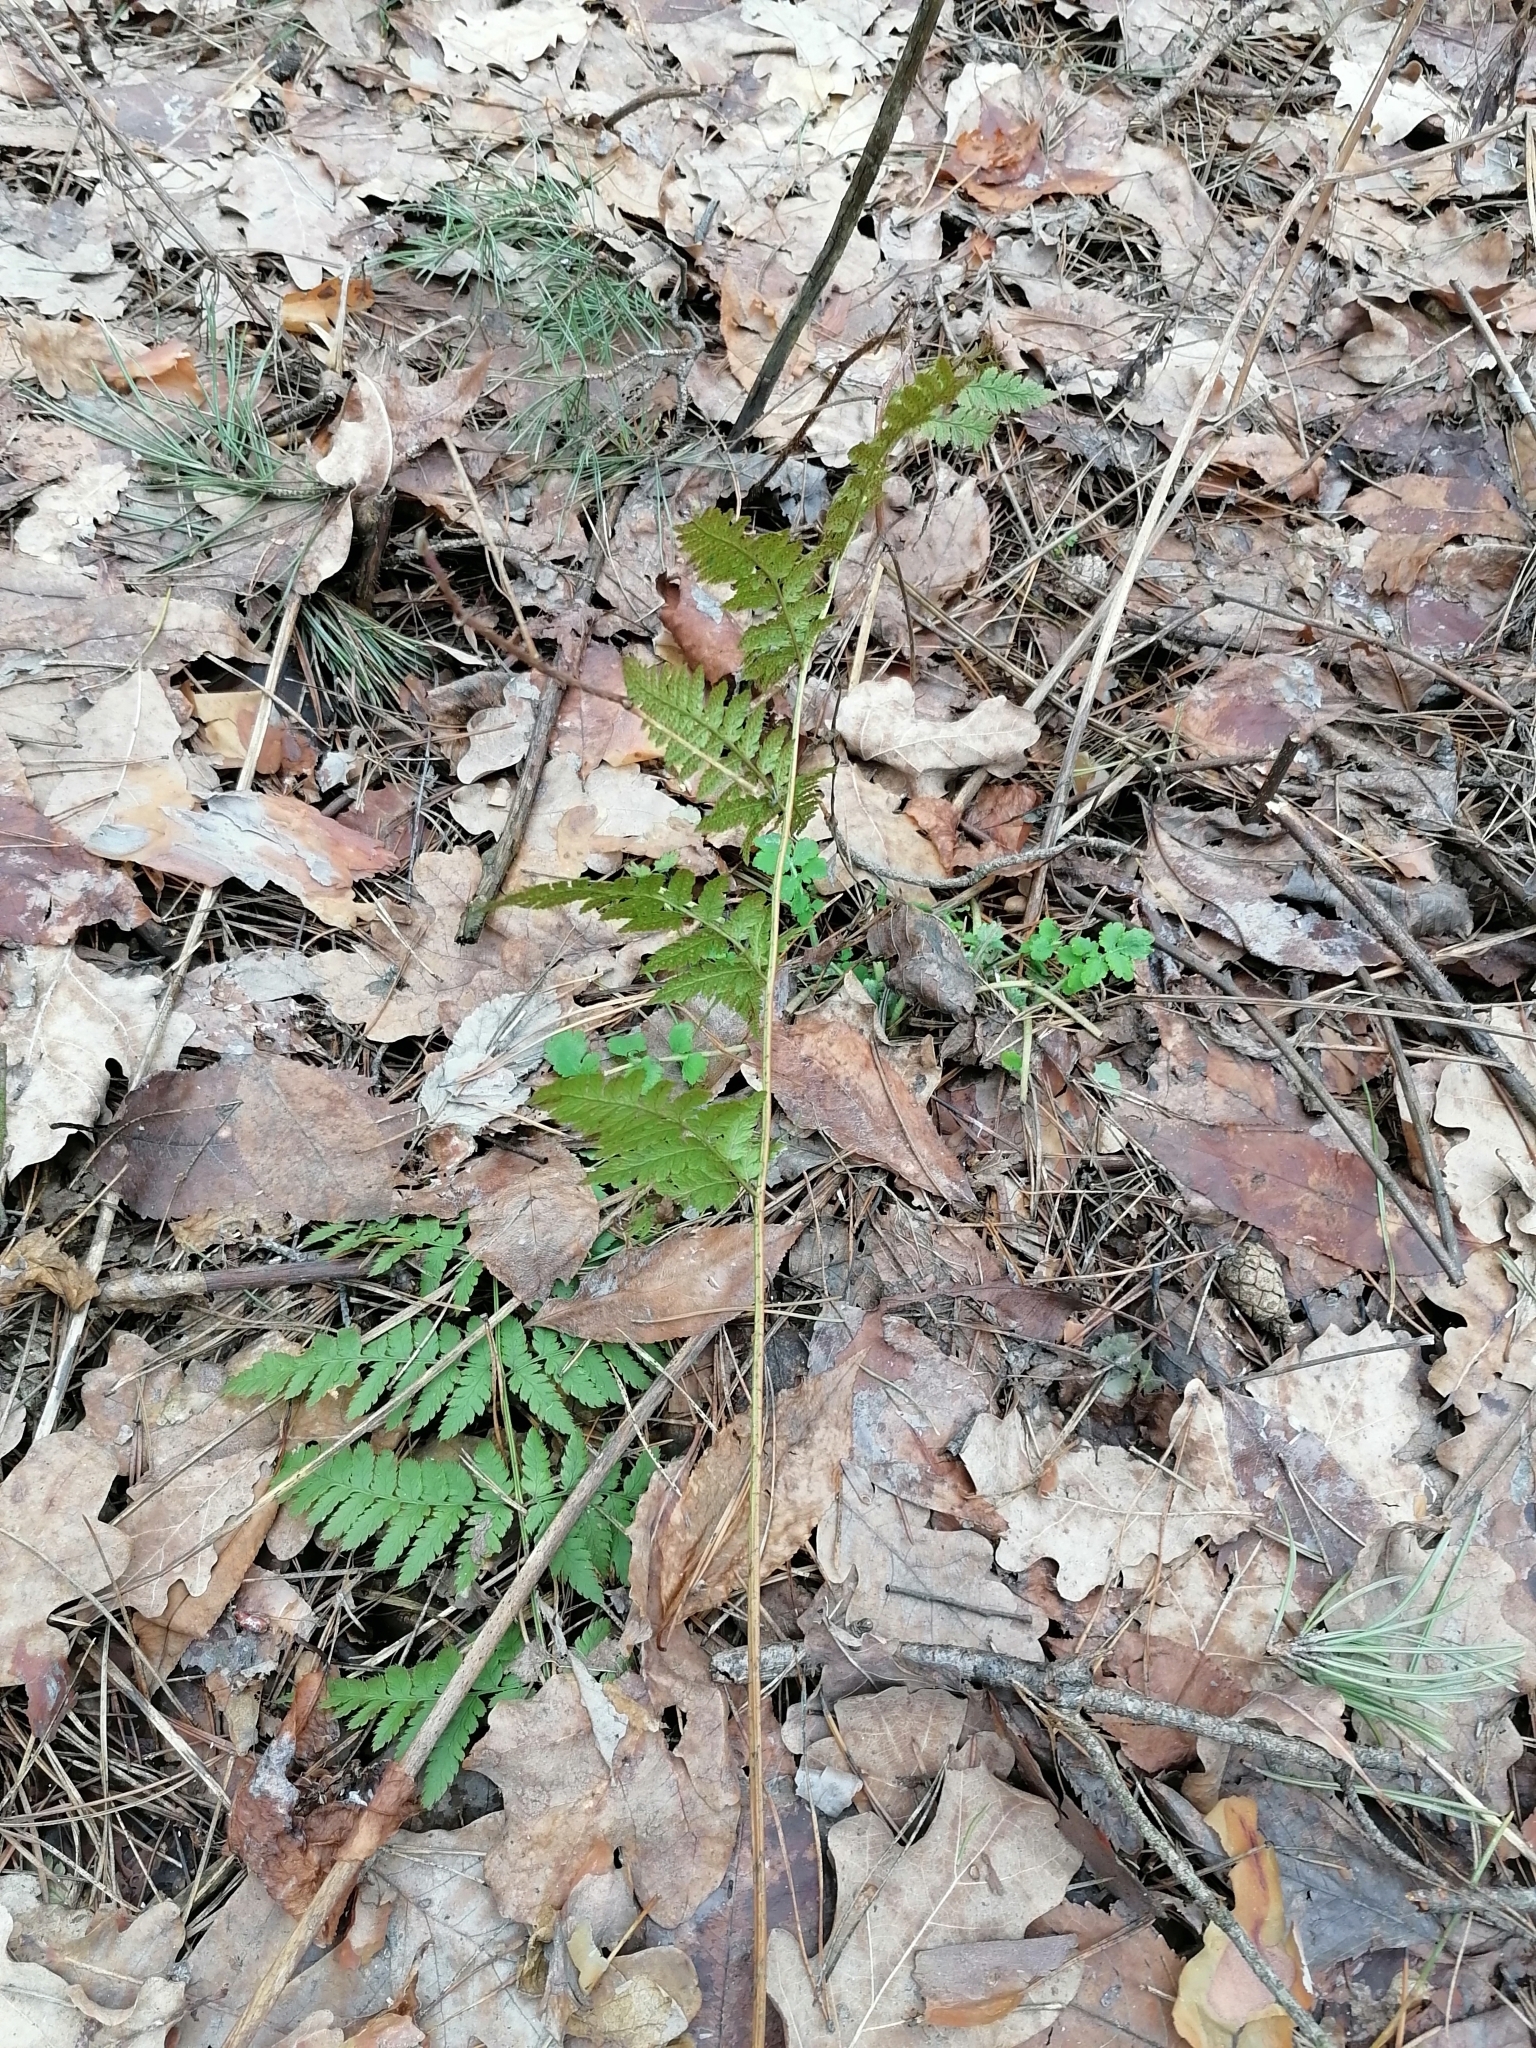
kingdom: Plantae
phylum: Tracheophyta
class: Polypodiopsida
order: Polypodiales
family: Dryopteridaceae
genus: Dryopteris
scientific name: Dryopteris carthusiana
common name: Narrow buckler-fern
